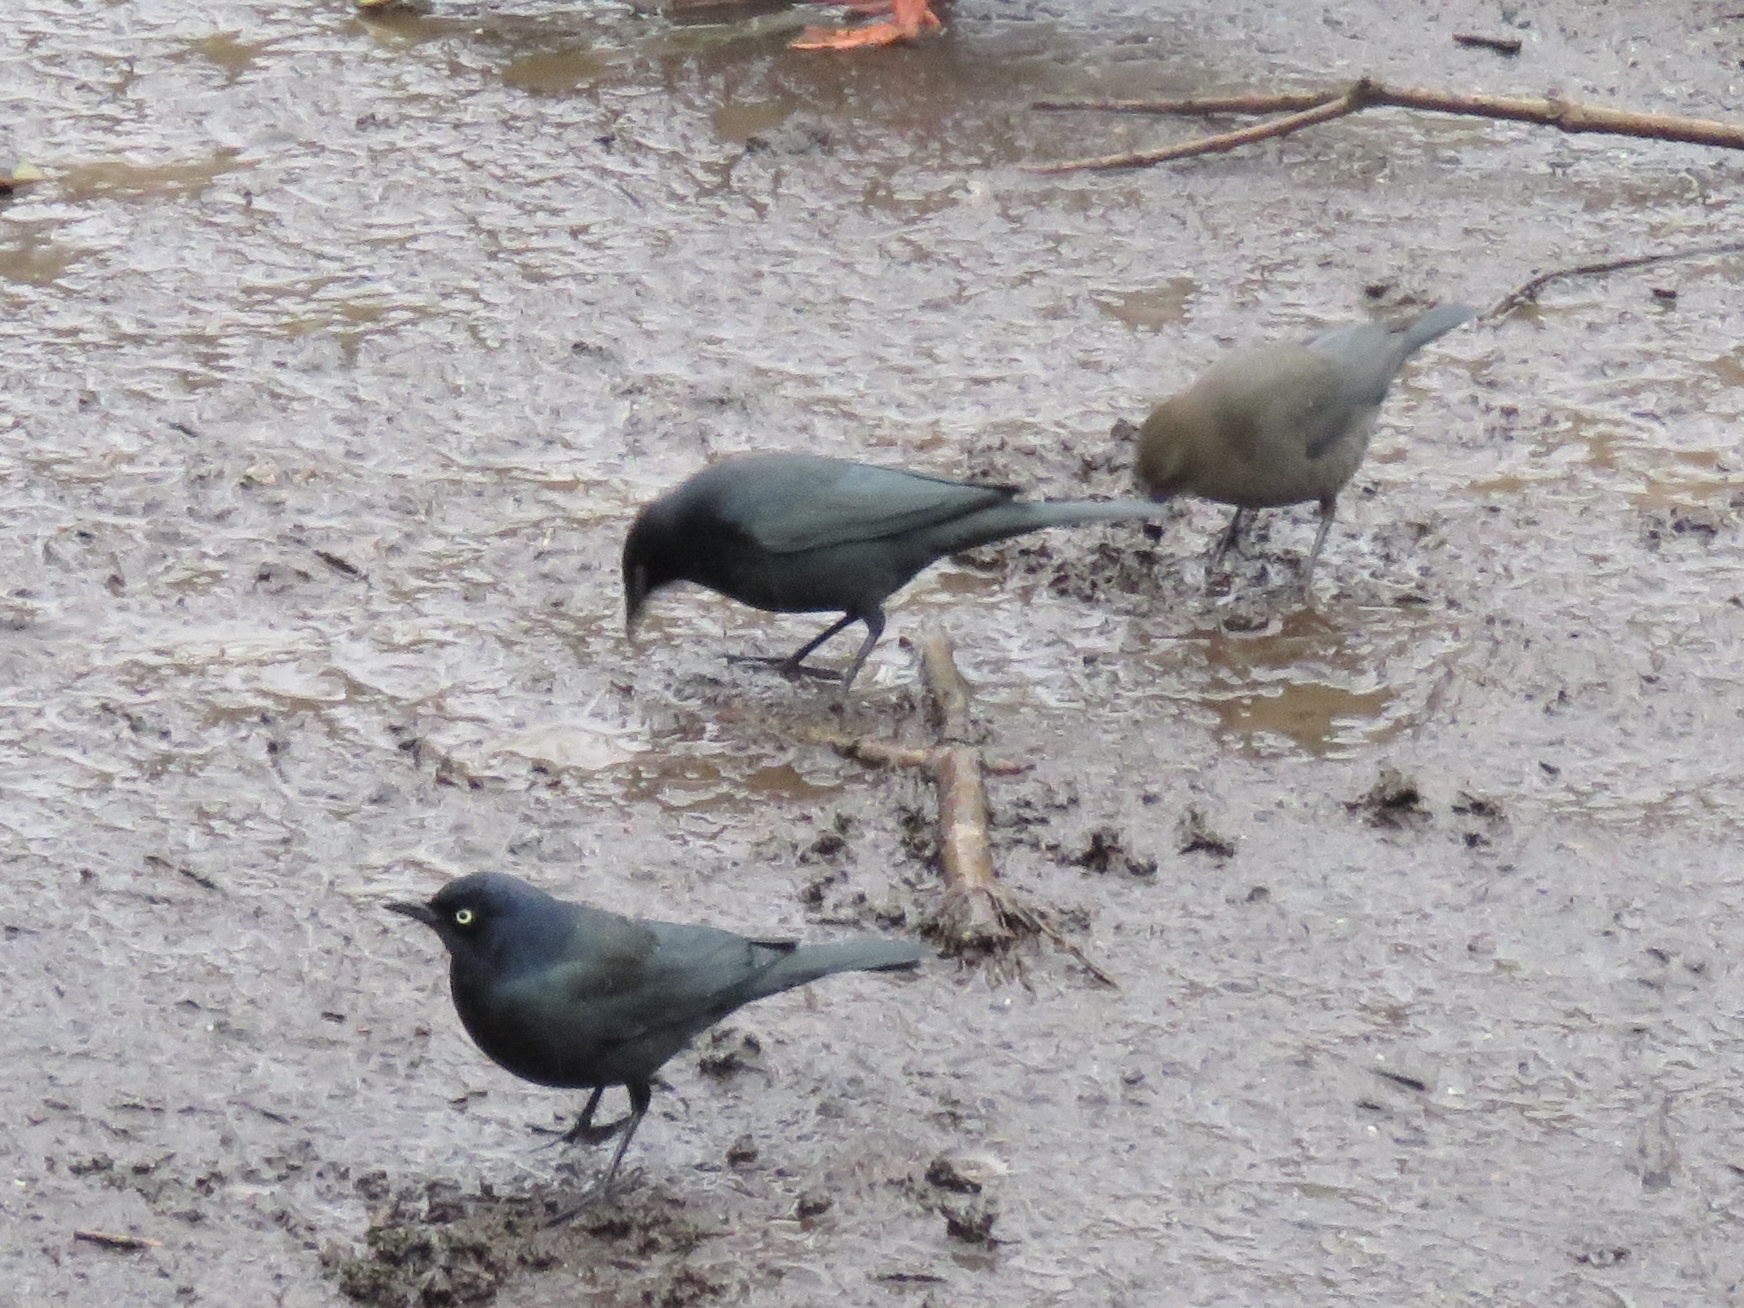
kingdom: Animalia
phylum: Chordata
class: Aves
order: Passeriformes
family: Icteridae
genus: Euphagus
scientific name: Euphagus cyanocephalus
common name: Brewer's blackbird
